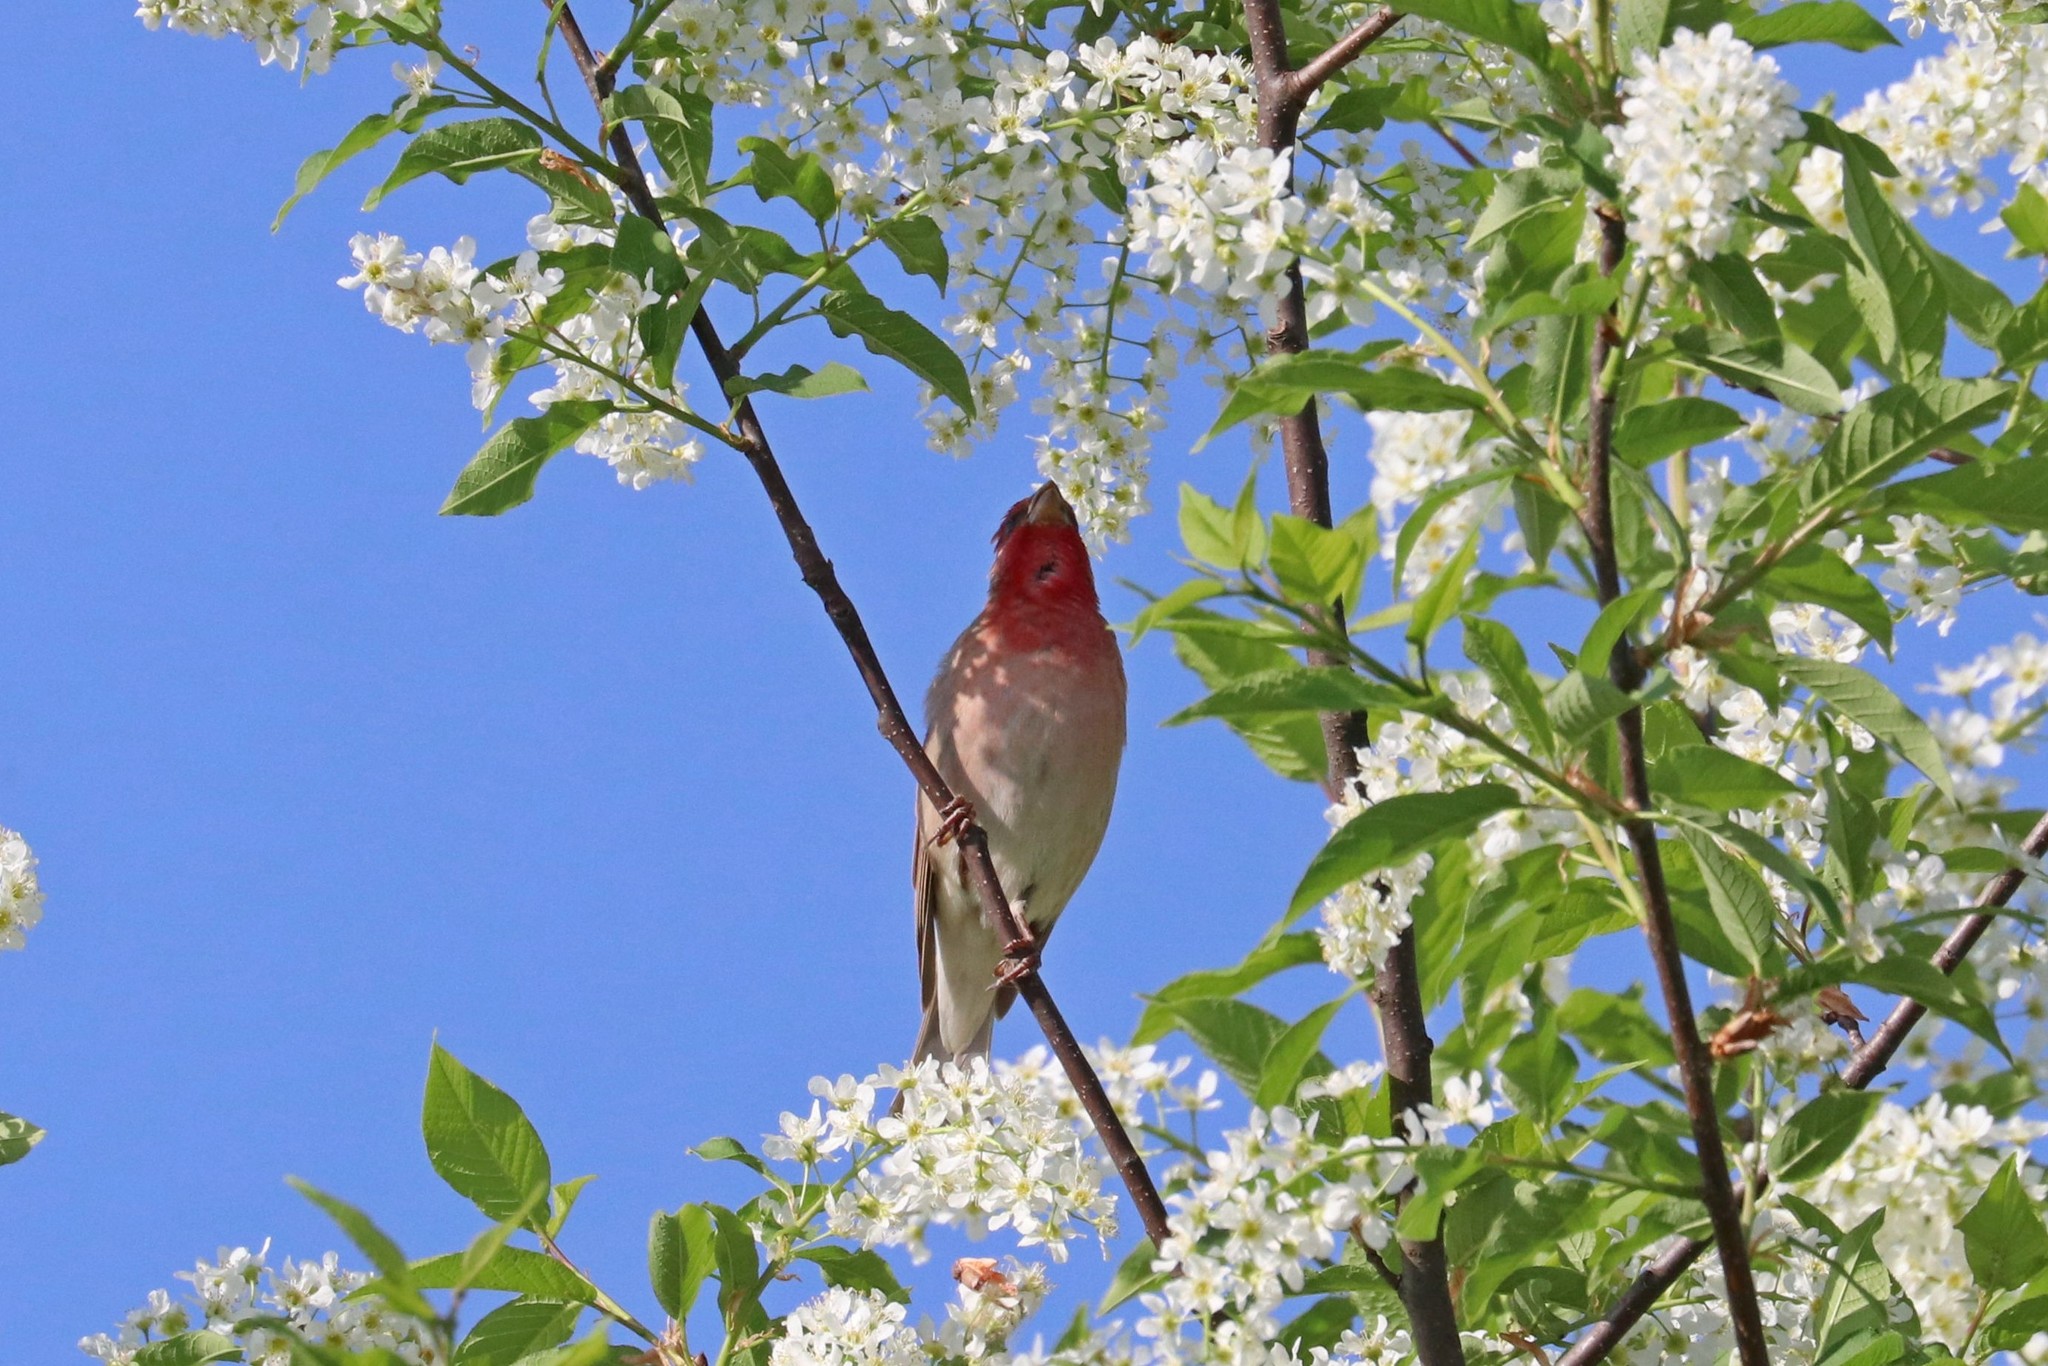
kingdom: Animalia
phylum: Chordata
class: Aves
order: Passeriformes
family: Fringillidae
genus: Carpodacus
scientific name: Carpodacus erythrinus
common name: Common rosefinch
